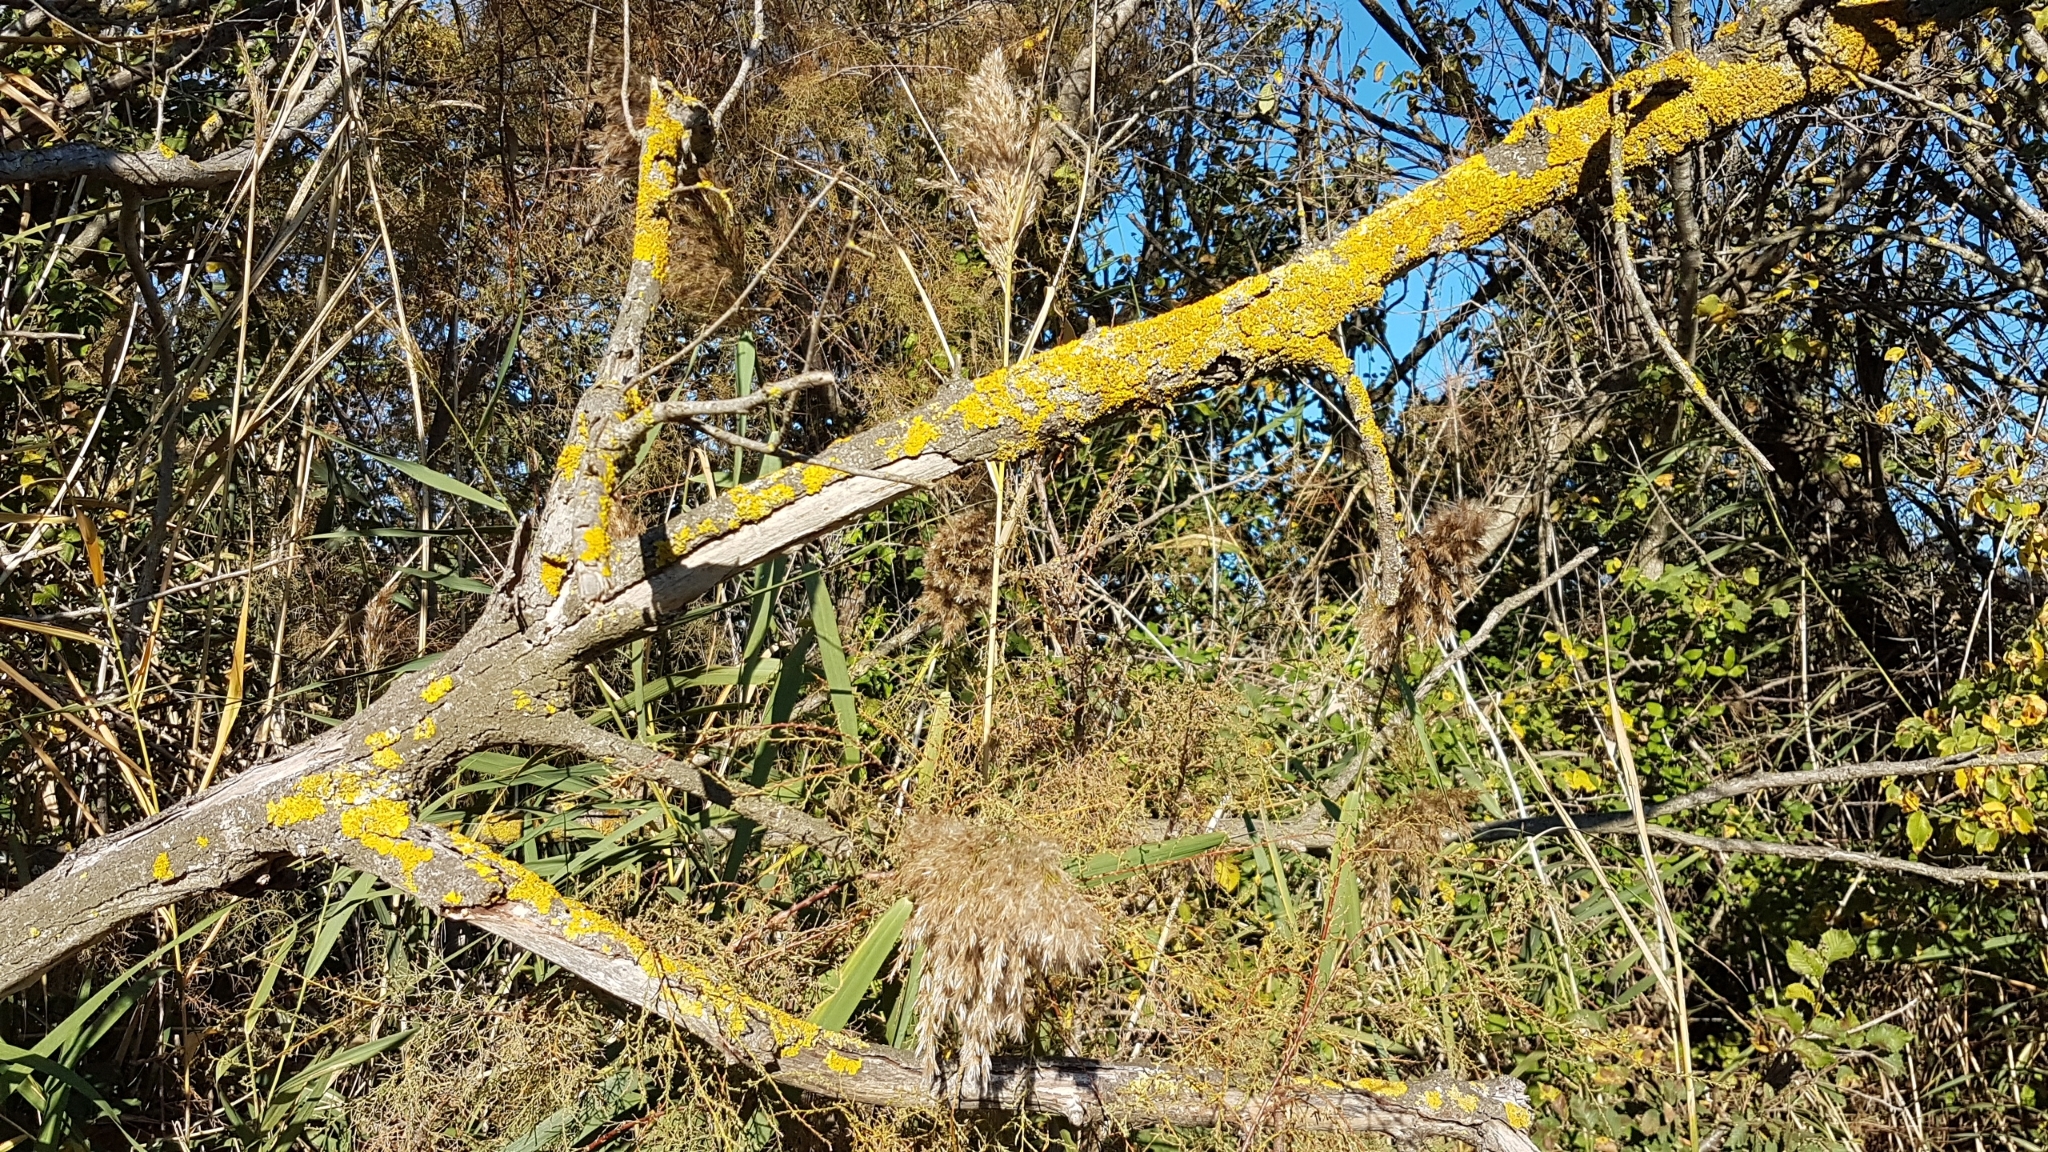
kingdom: Fungi
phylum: Ascomycota
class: Lecanoromycetes
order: Teloschistales
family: Teloschistaceae
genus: Xanthoria
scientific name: Xanthoria parietina
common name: Common orange lichen
